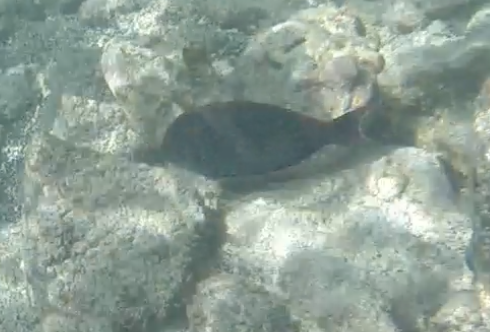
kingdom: Animalia
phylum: Chordata
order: Perciformes
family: Acanthuridae
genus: Acanthurus
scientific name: Acanthurus nigrofuscus
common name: Blackspot surgeonfish
